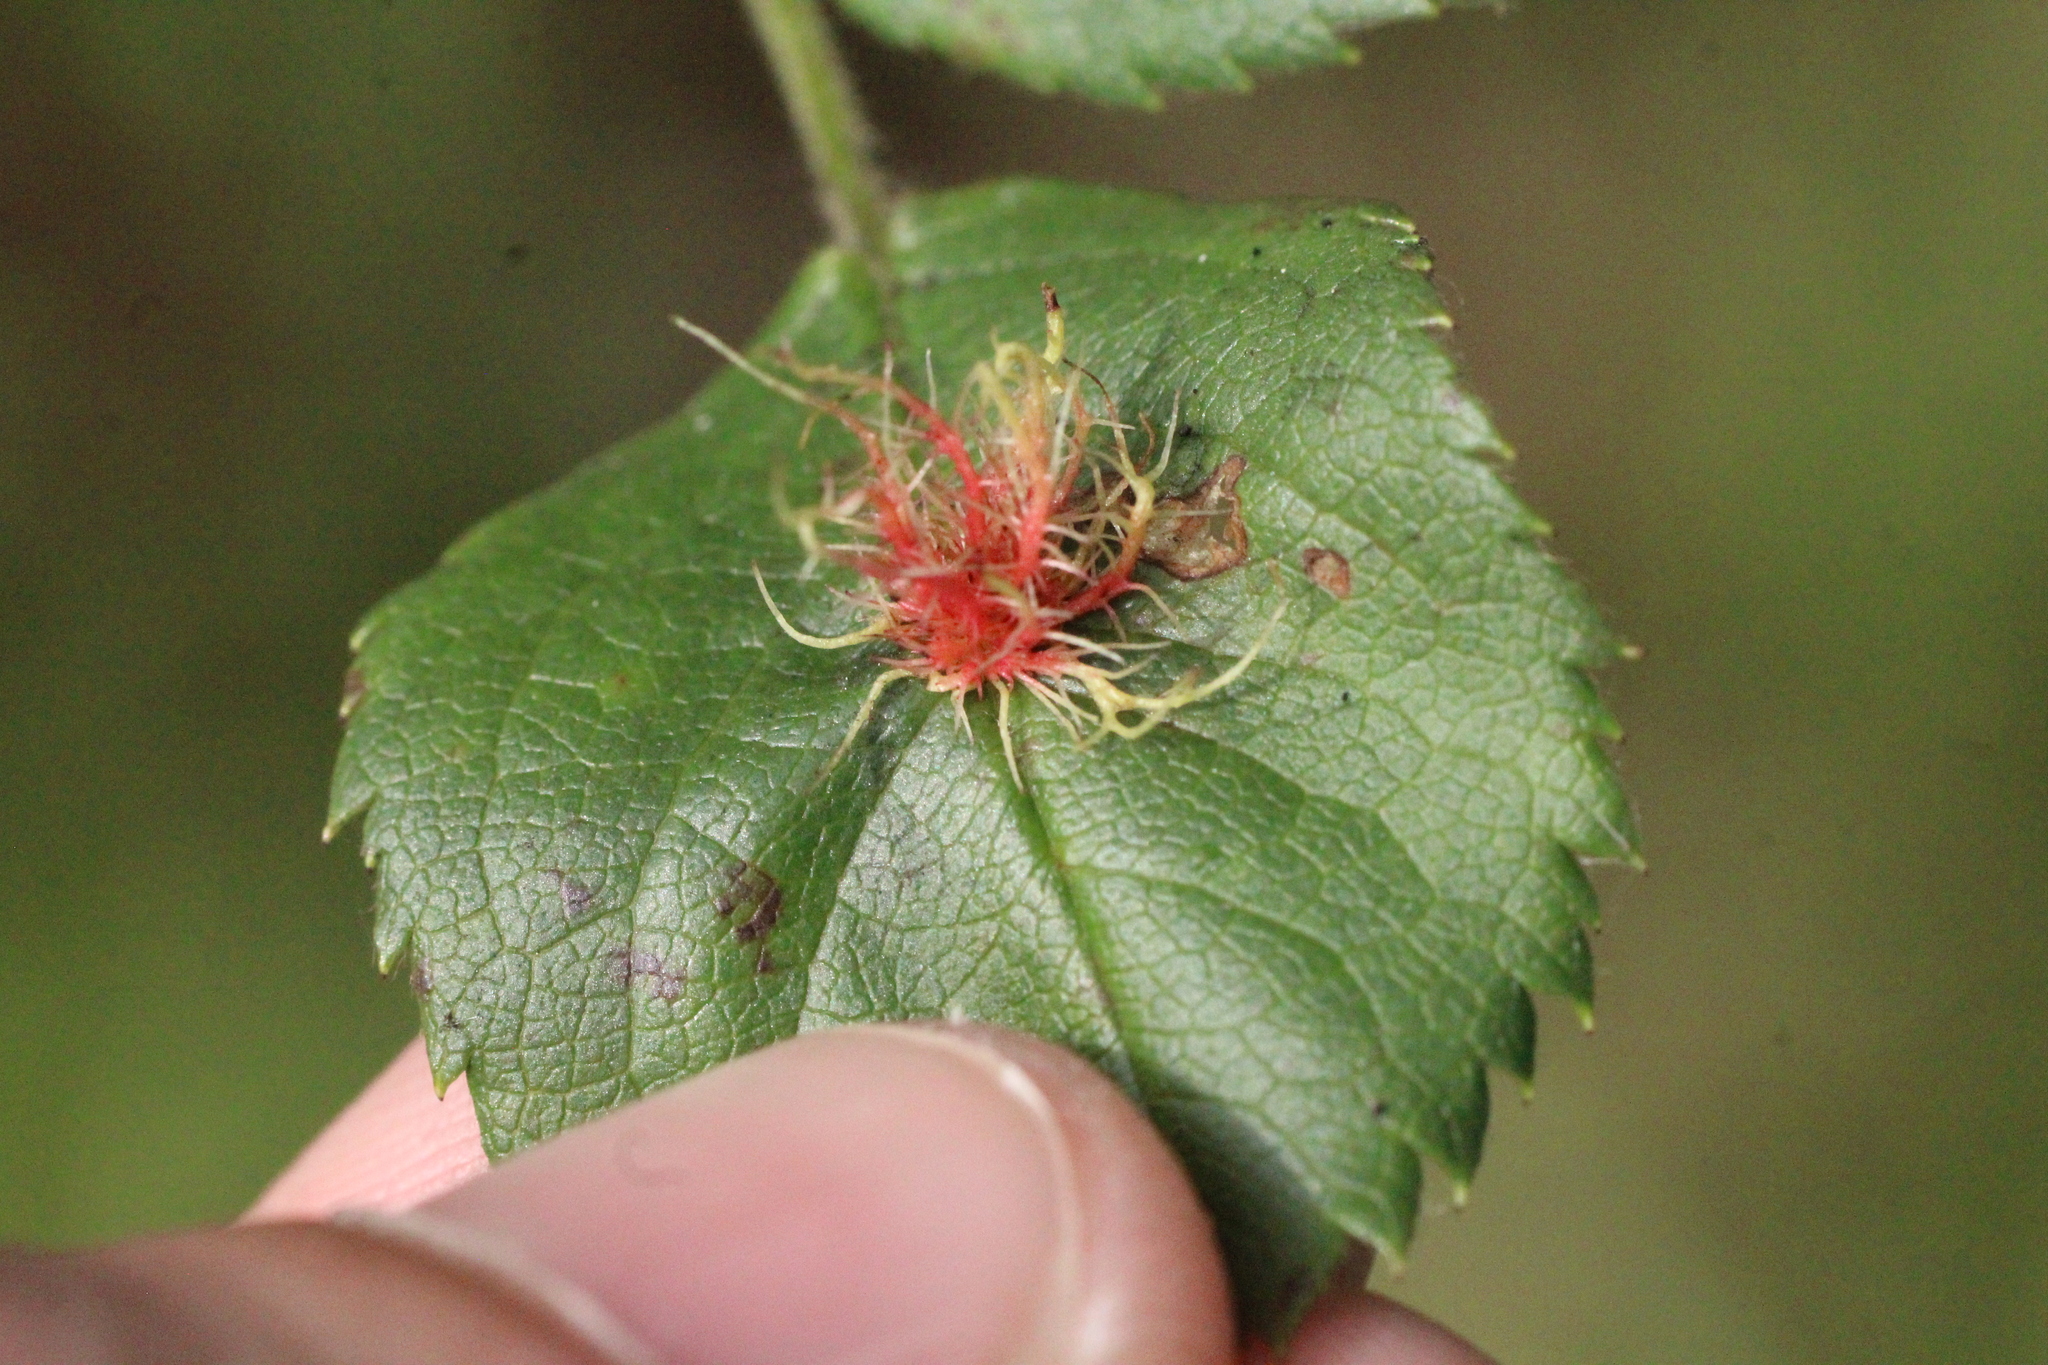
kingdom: Animalia
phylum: Arthropoda
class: Insecta
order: Hymenoptera
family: Cynipidae
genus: Diplolepis
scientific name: Diplolepis rosae
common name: Bedeguar gall
